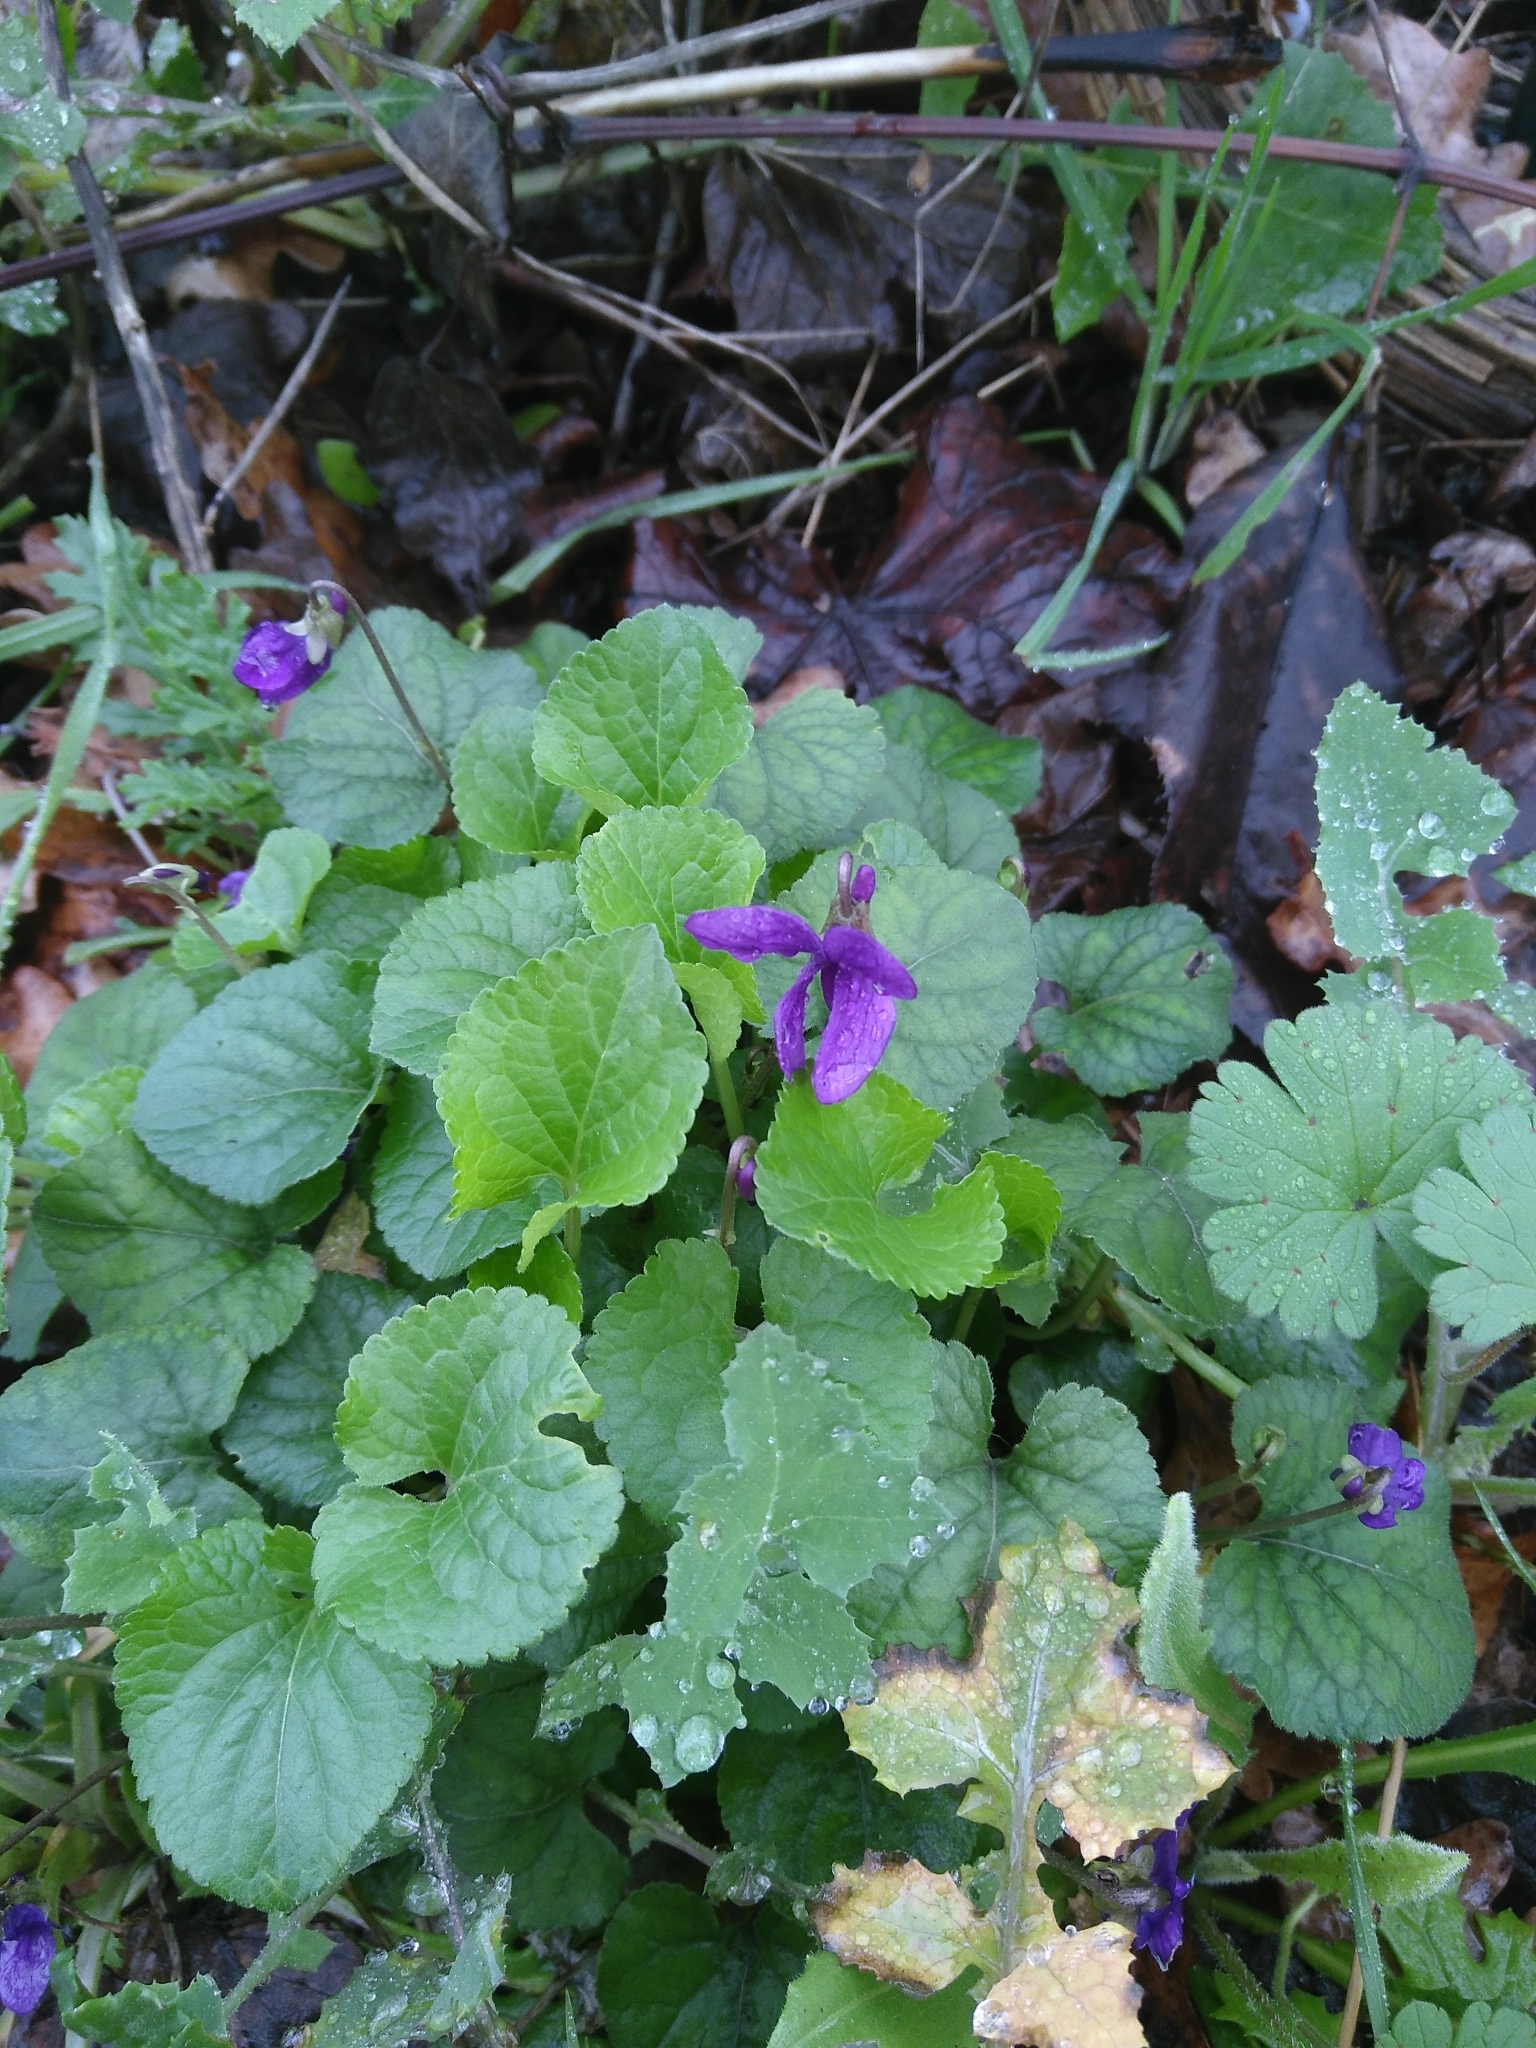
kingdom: Plantae
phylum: Tracheophyta
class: Magnoliopsida
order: Malpighiales
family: Violaceae
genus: Viola
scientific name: Viola odorata
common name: Sweet violet
